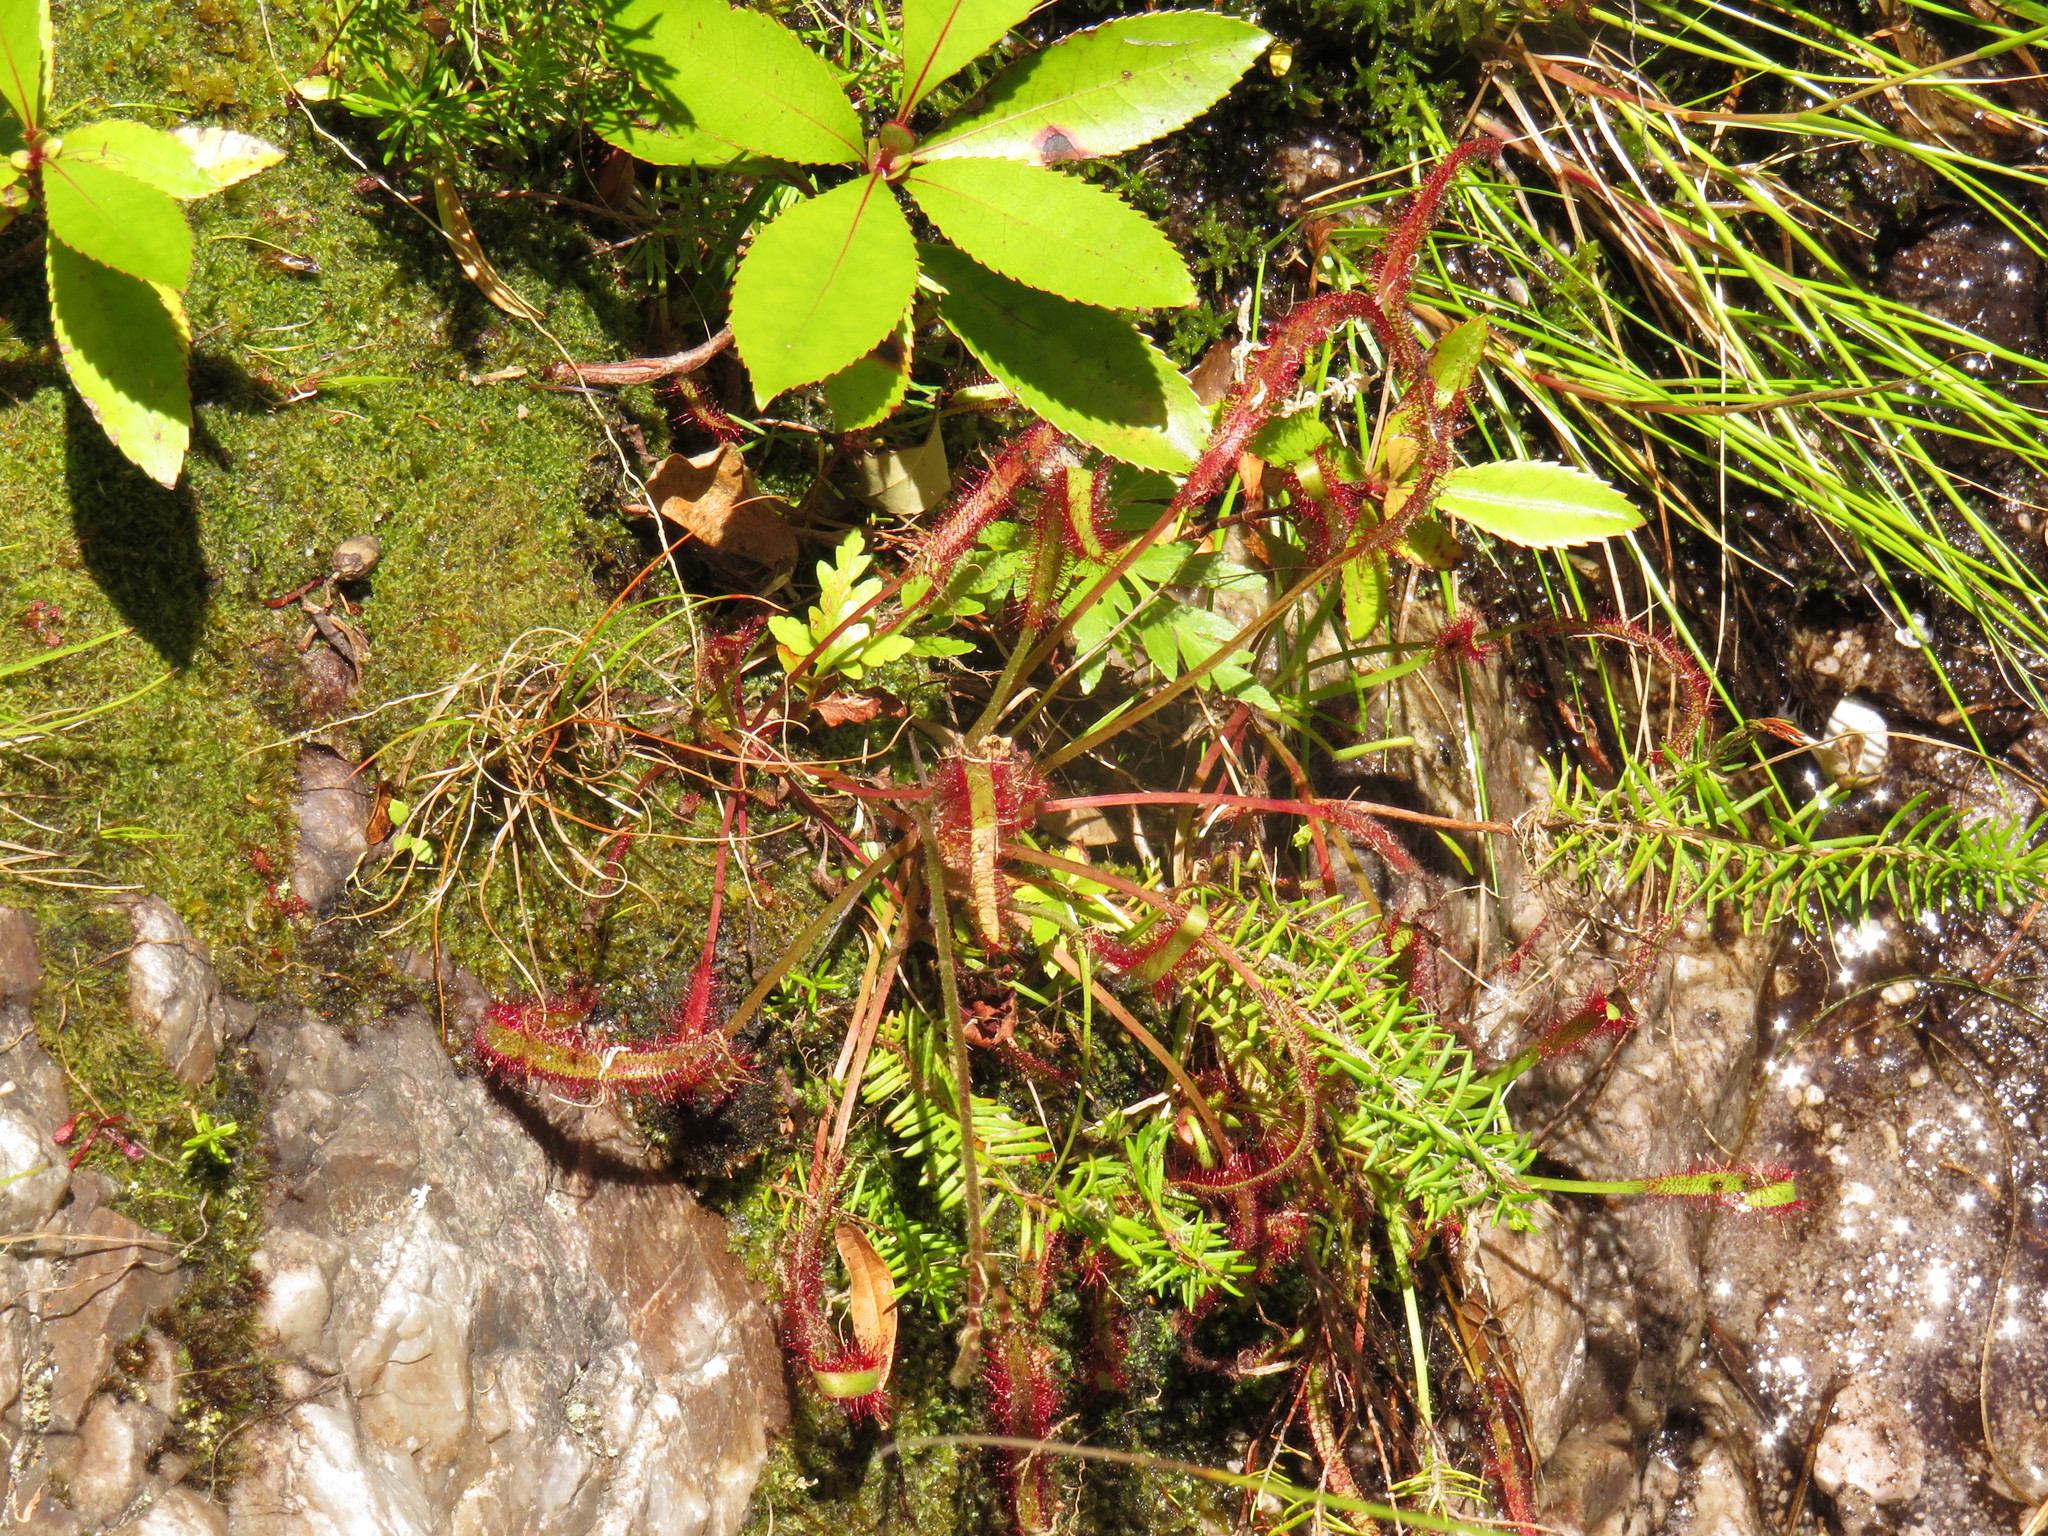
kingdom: Plantae
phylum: Tracheophyta
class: Magnoliopsida
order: Caryophyllales
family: Droseraceae
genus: Drosera
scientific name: Drosera capensis
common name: Cape sundew
